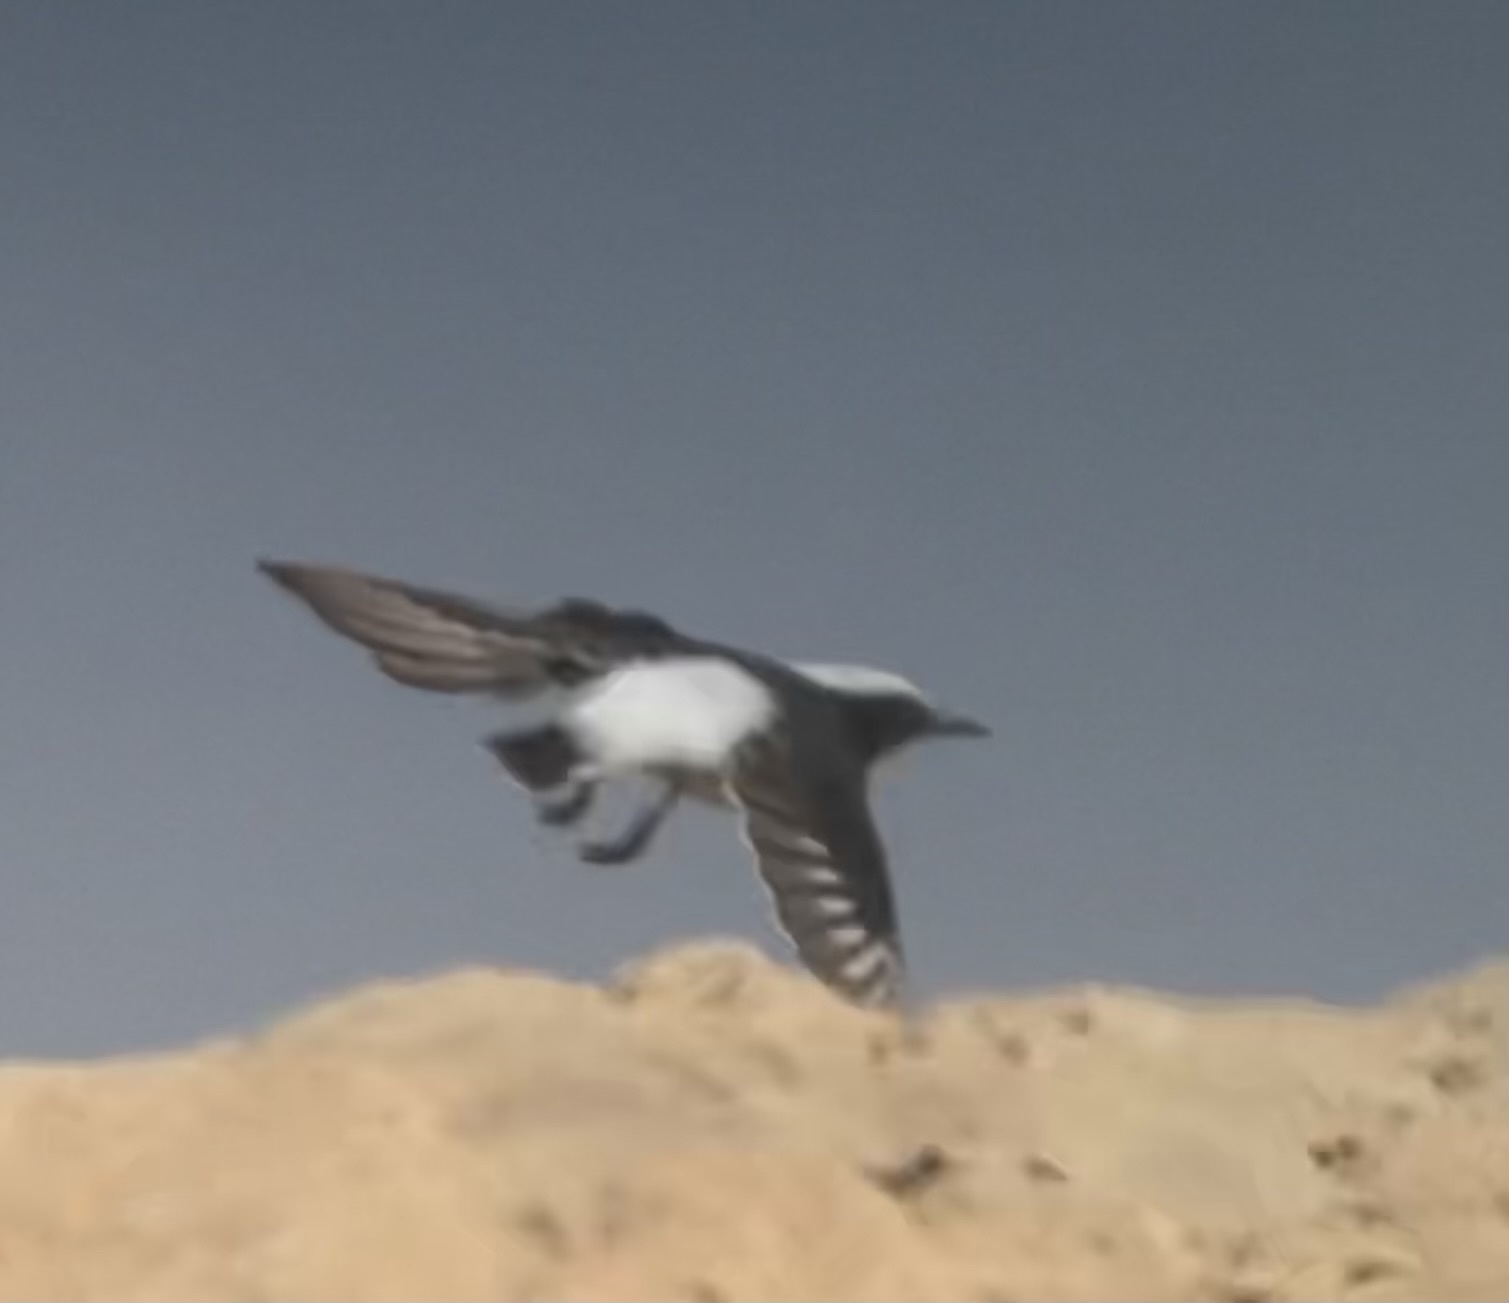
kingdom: Animalia
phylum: Chordata
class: Aves
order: Passeriformes
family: Muscicapidae
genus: Oenanthe
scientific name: Oenanthe lugens
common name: Mourning wheatear
